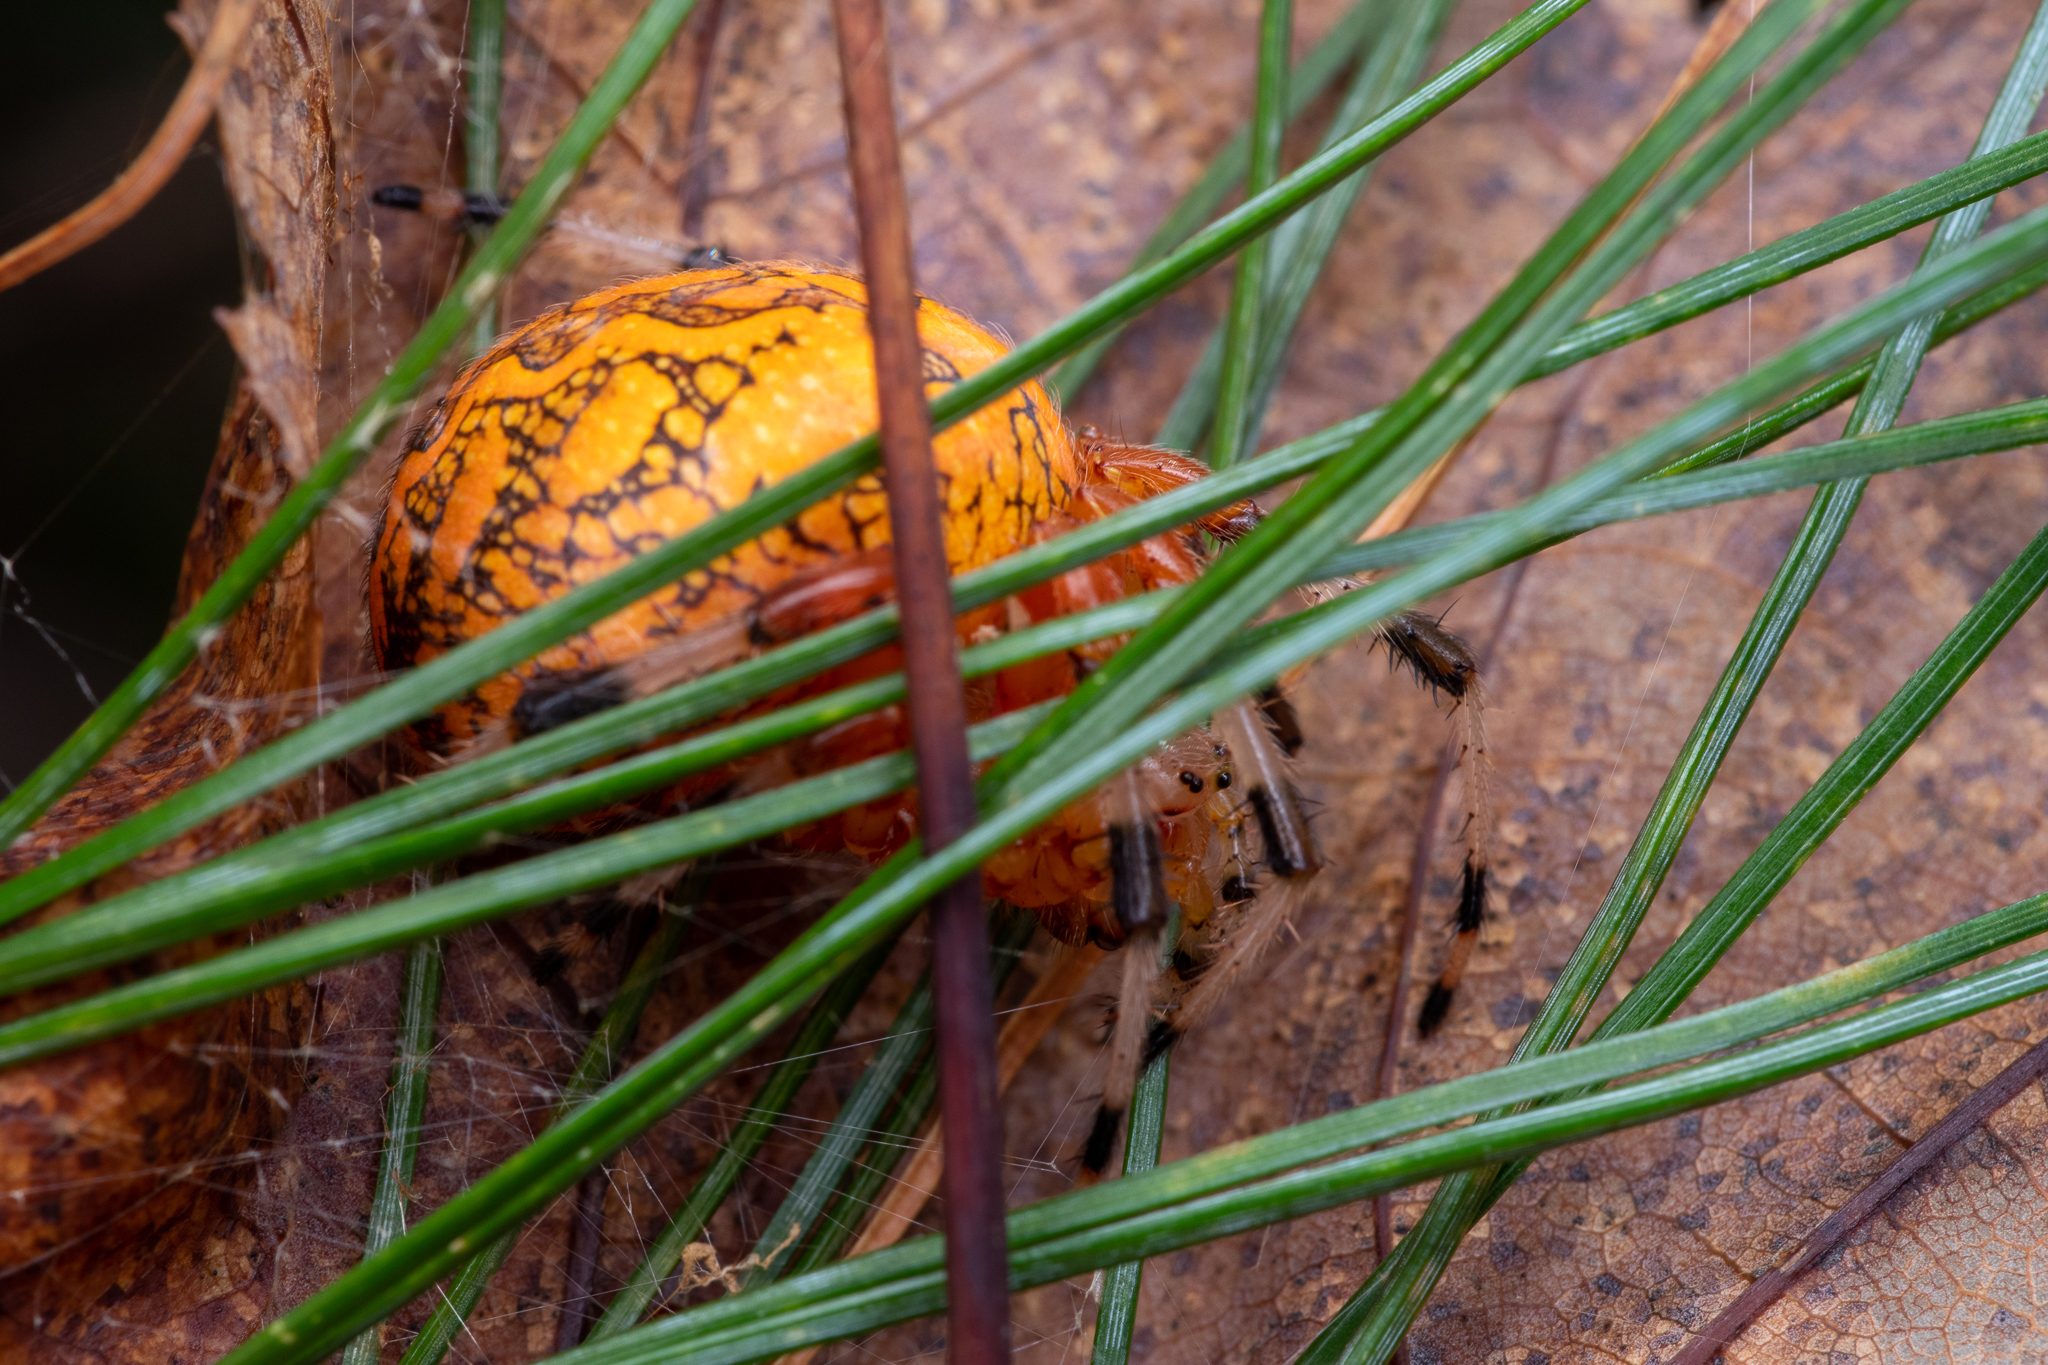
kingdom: Animalia
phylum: Arthropoda
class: Arachnida
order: Araneae
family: Araneidae
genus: Araneus
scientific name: Araneus marmoreus
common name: Marbled orbweaver
